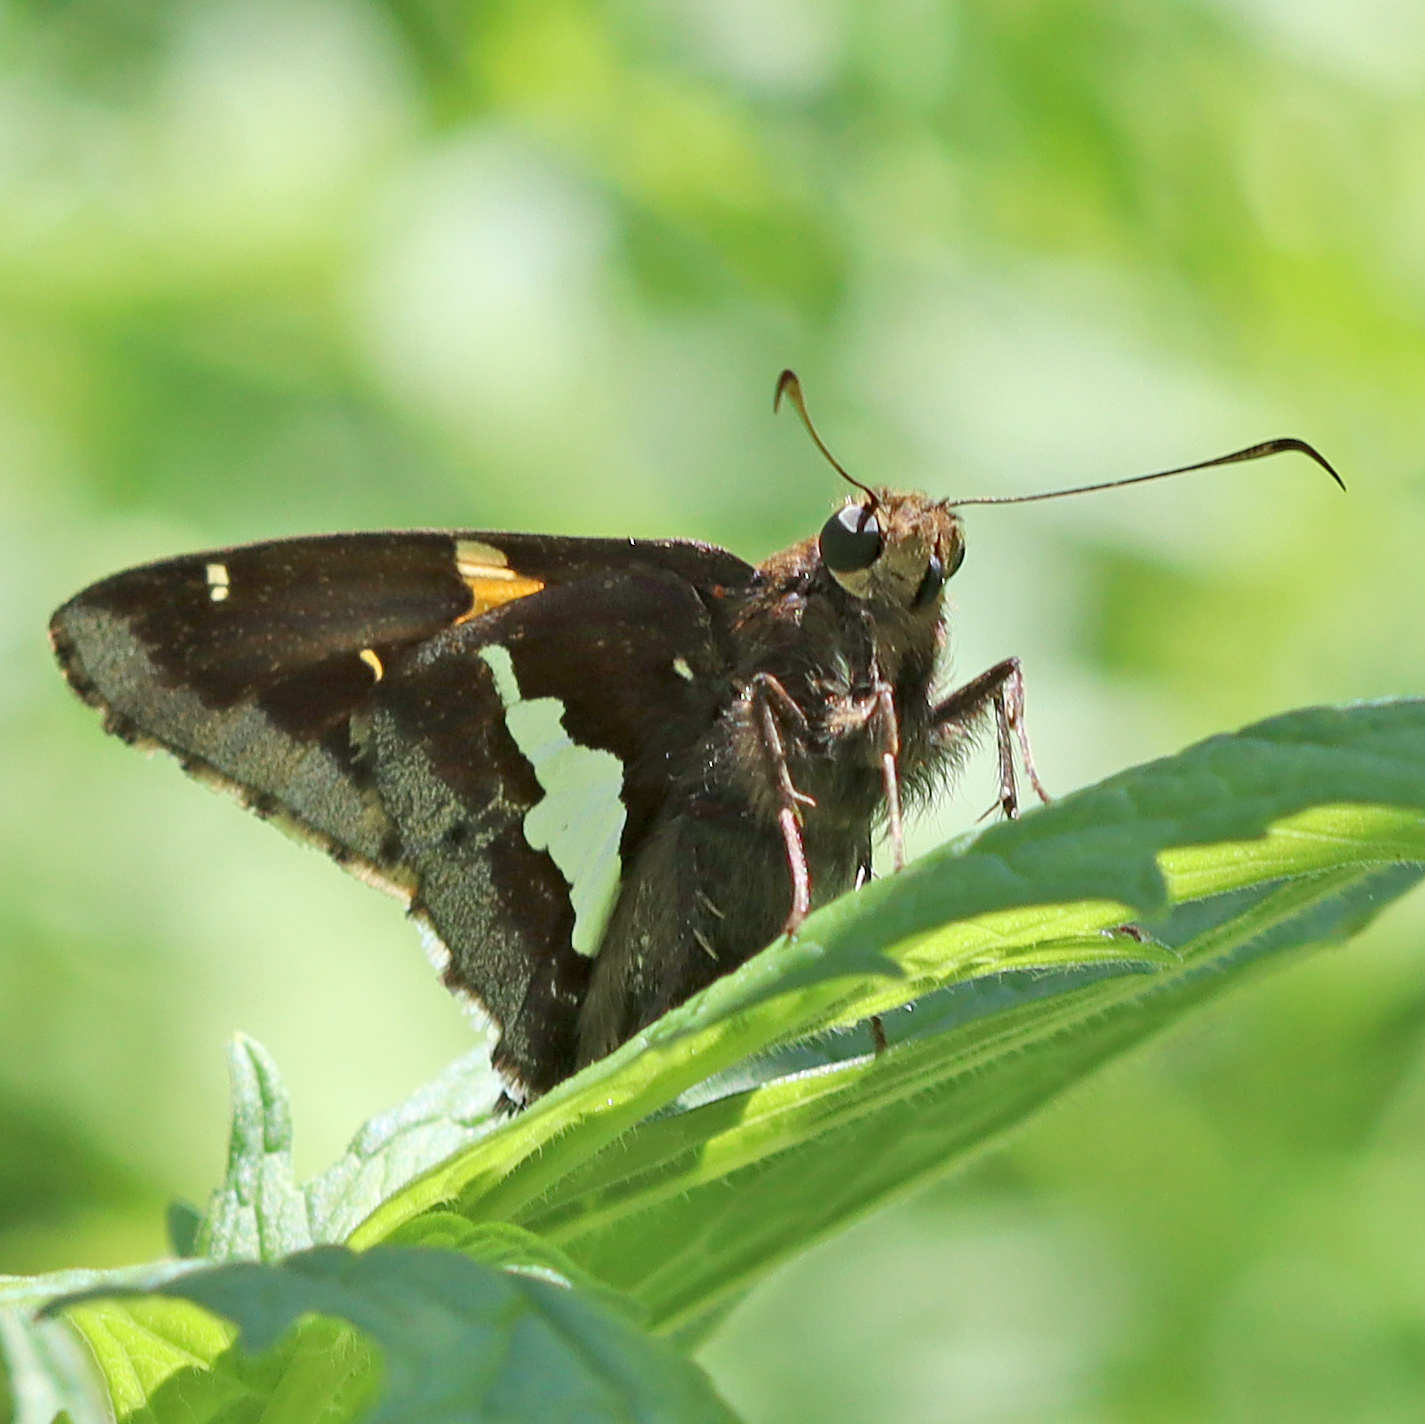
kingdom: Animalia
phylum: Arthropoda
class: Insecta
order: Lepidoptera
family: Hesperiidae
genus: Epargyreus
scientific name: Epargyreus clarus
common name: Silver-spotted skipper
